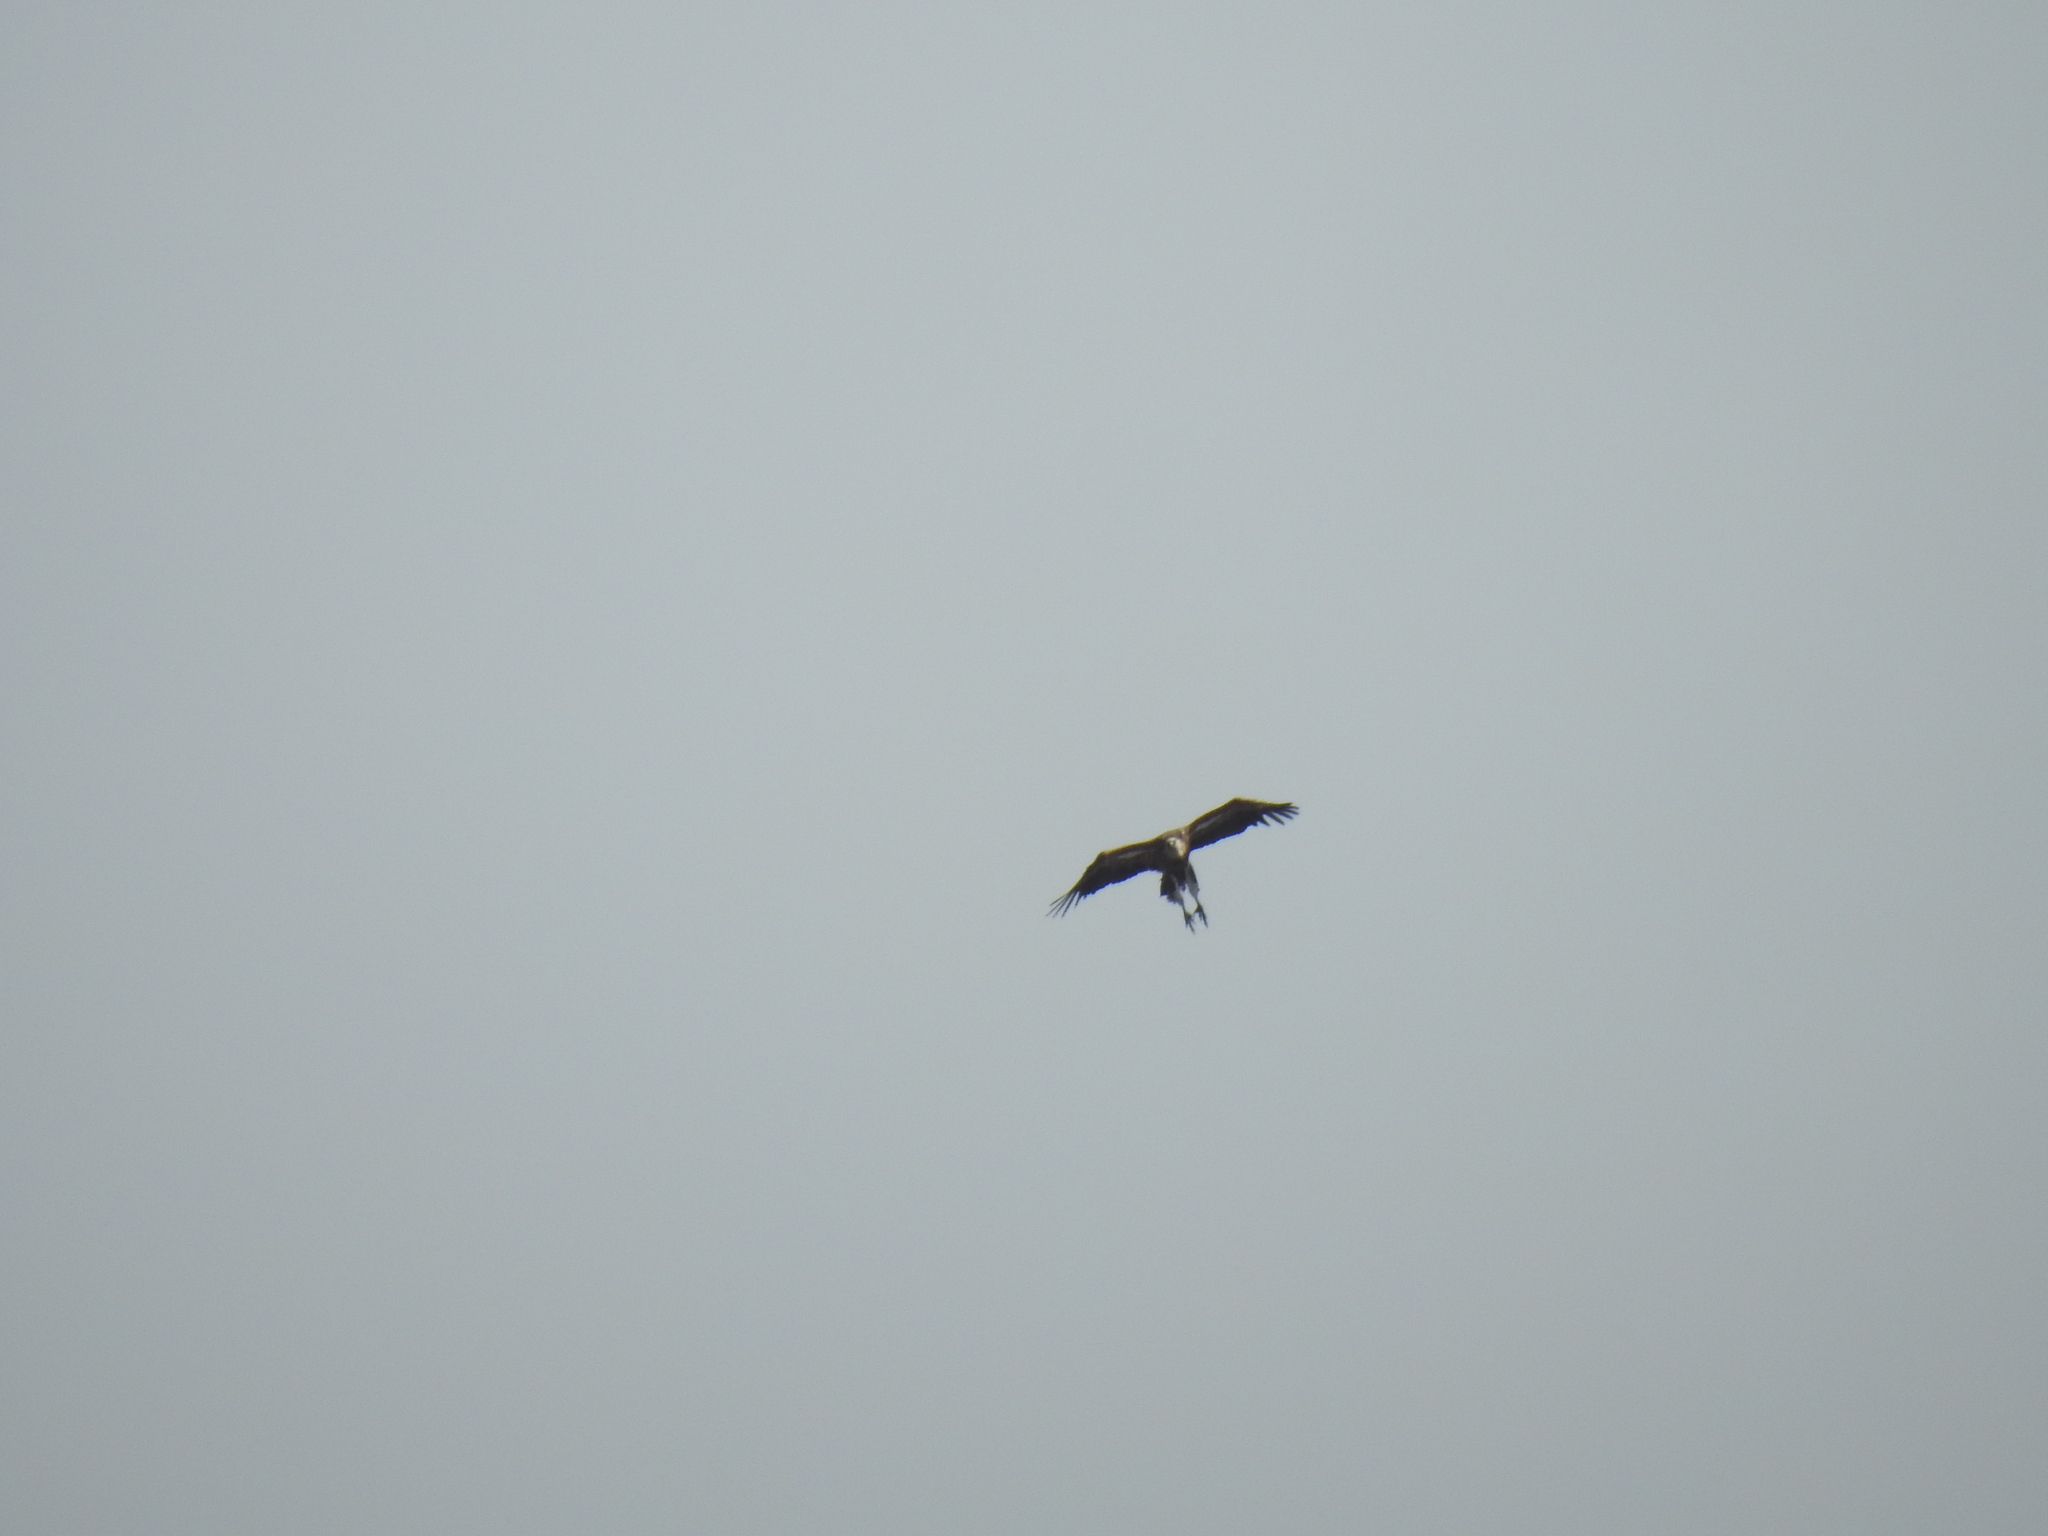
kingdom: Animalia
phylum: Chordata
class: Aves
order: Accipitriformes
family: Accipitridae
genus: Gyps
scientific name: Gyps fulvus
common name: Griffon vulture
